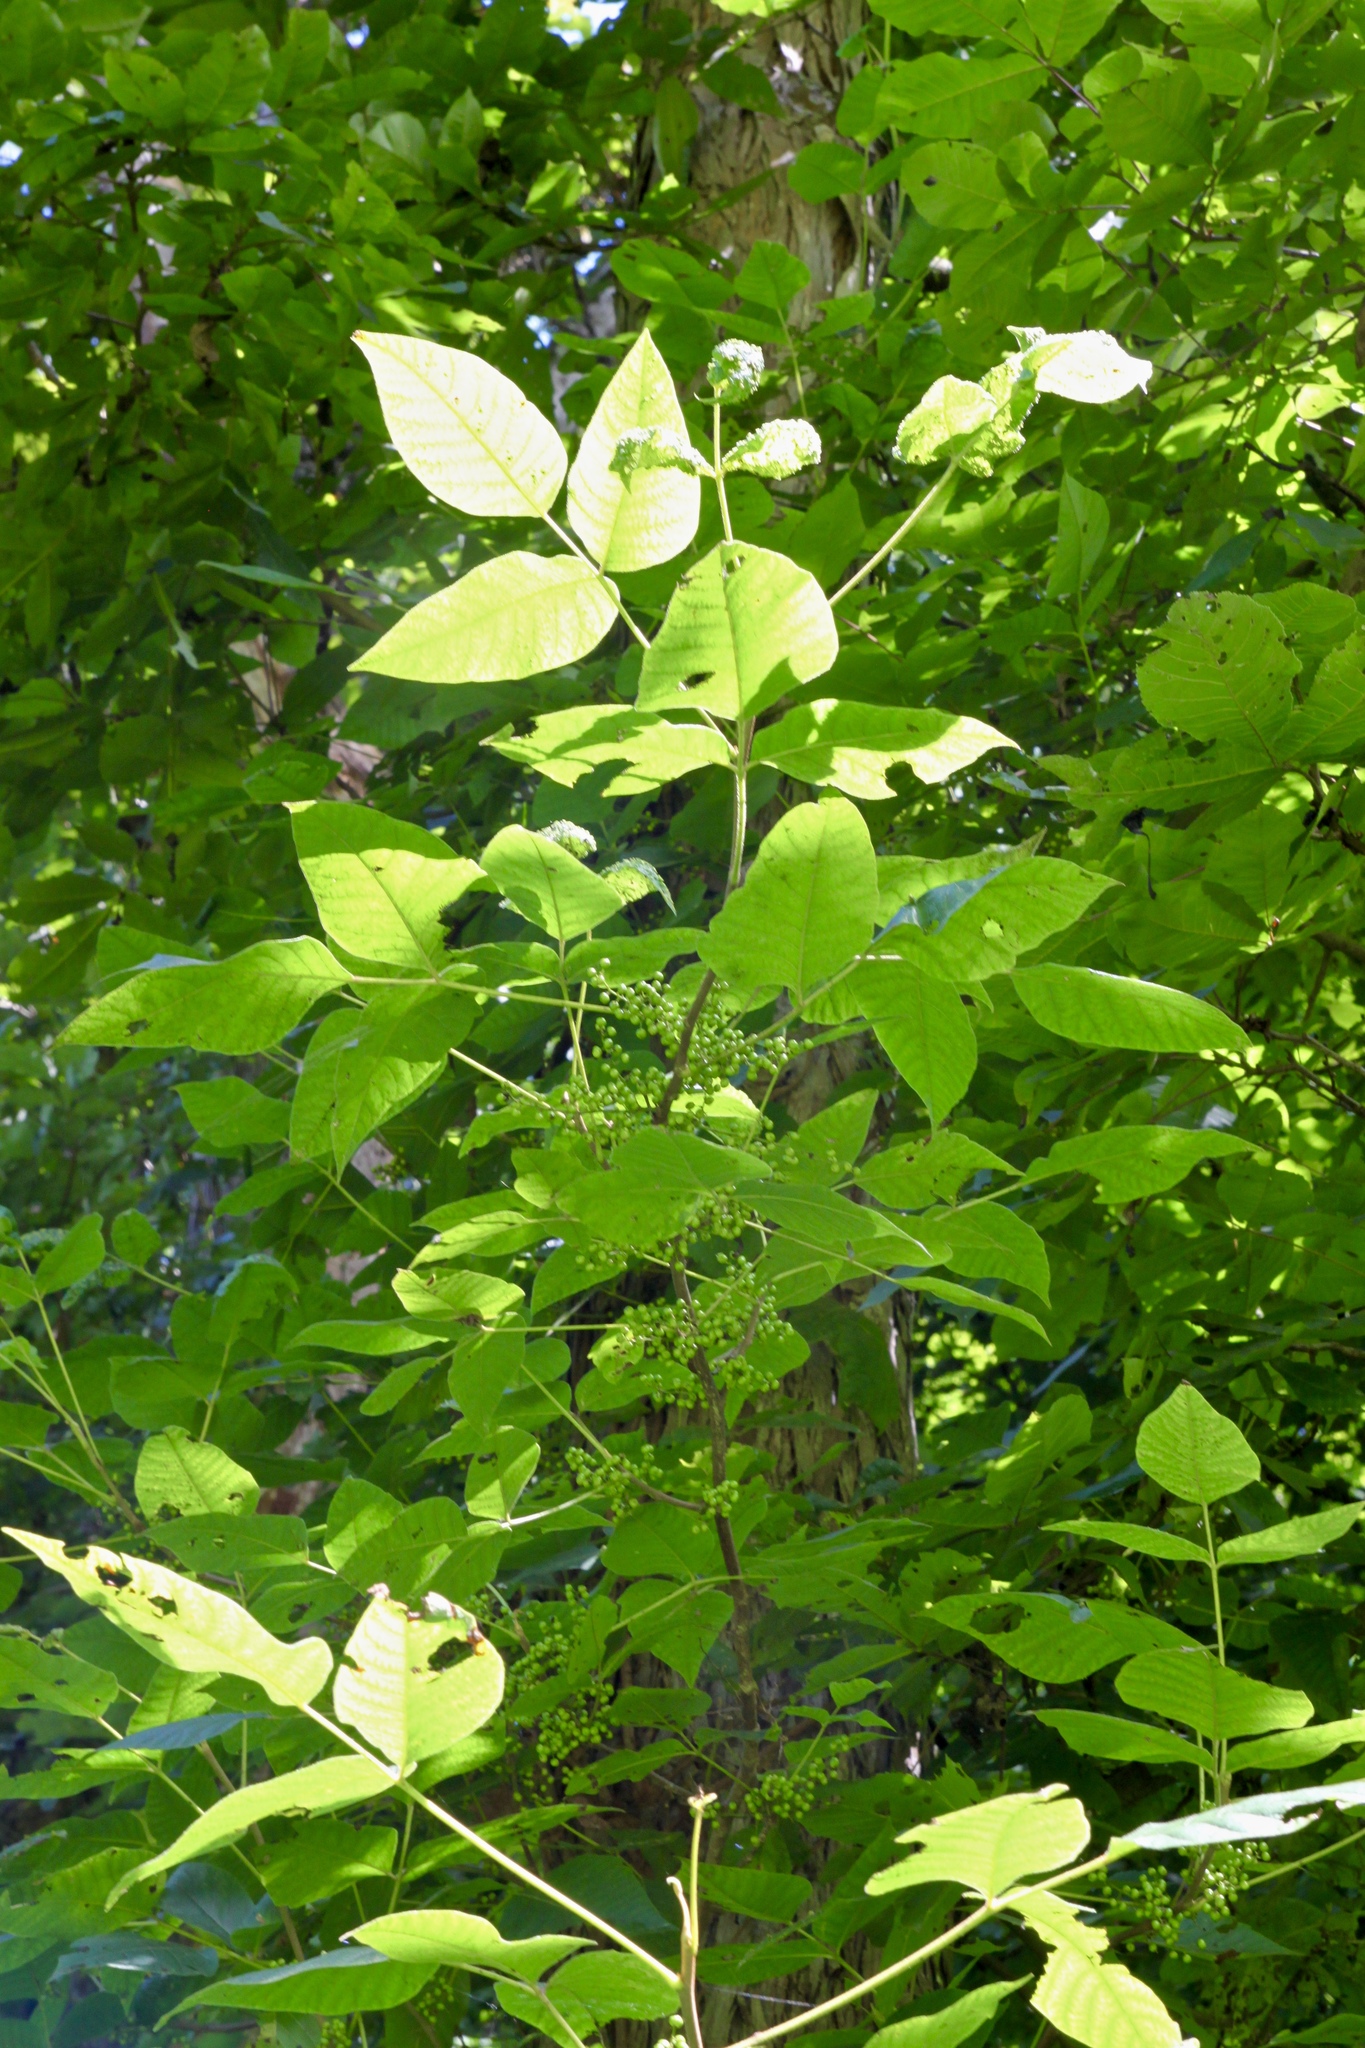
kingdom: Plantae
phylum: Tracheophyta
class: Magnoliopsida
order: Sapindales
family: Anacardiaceae
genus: Toxicodendron
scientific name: Toxicodendron radicans
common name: Poison ivy
